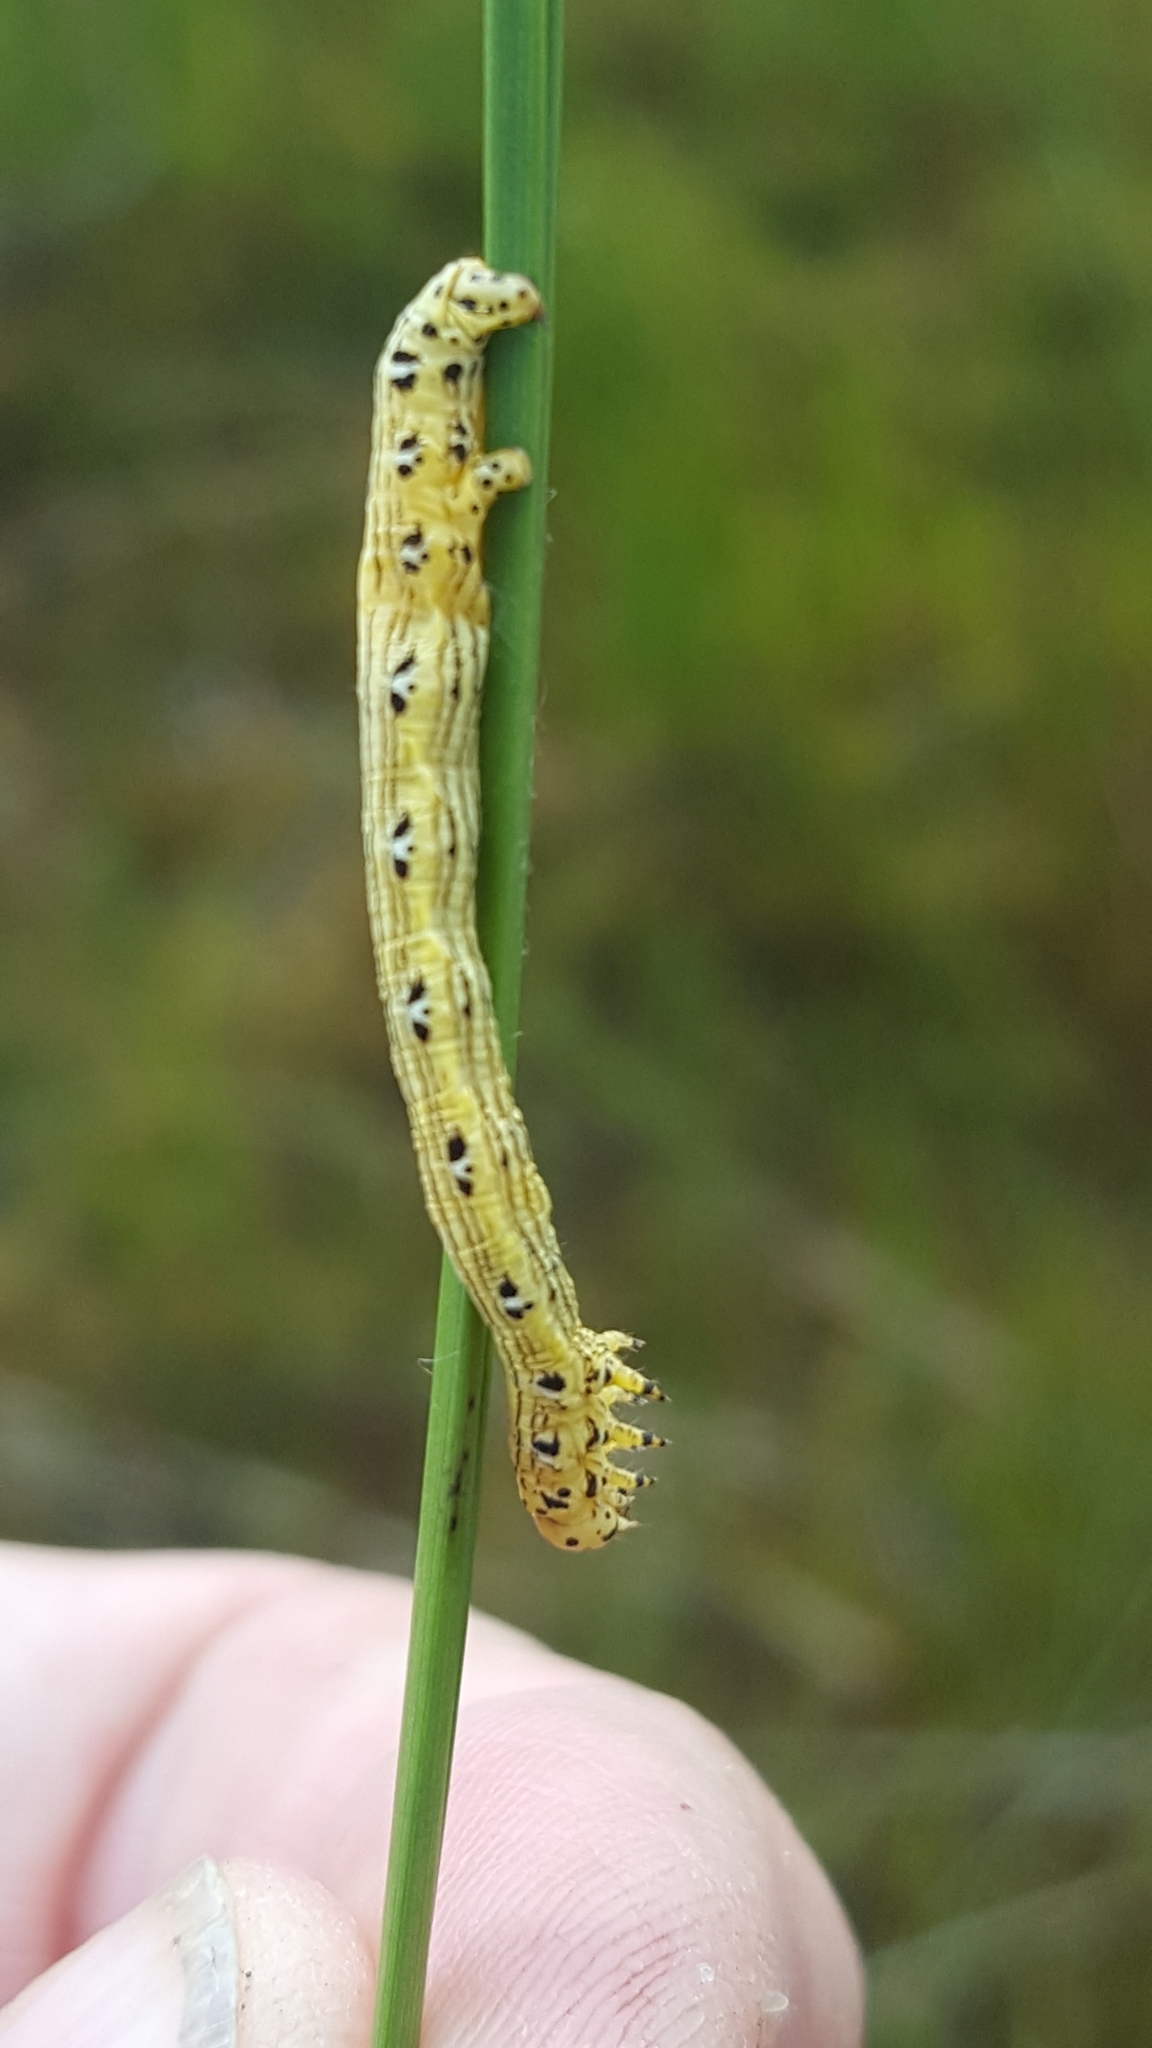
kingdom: Animalia
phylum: Arthropoda
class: Insecta
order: Lepidoptera
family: Geometridae
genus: Cingilia
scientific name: Cingilia catenaria
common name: Chain-dotted geometer
